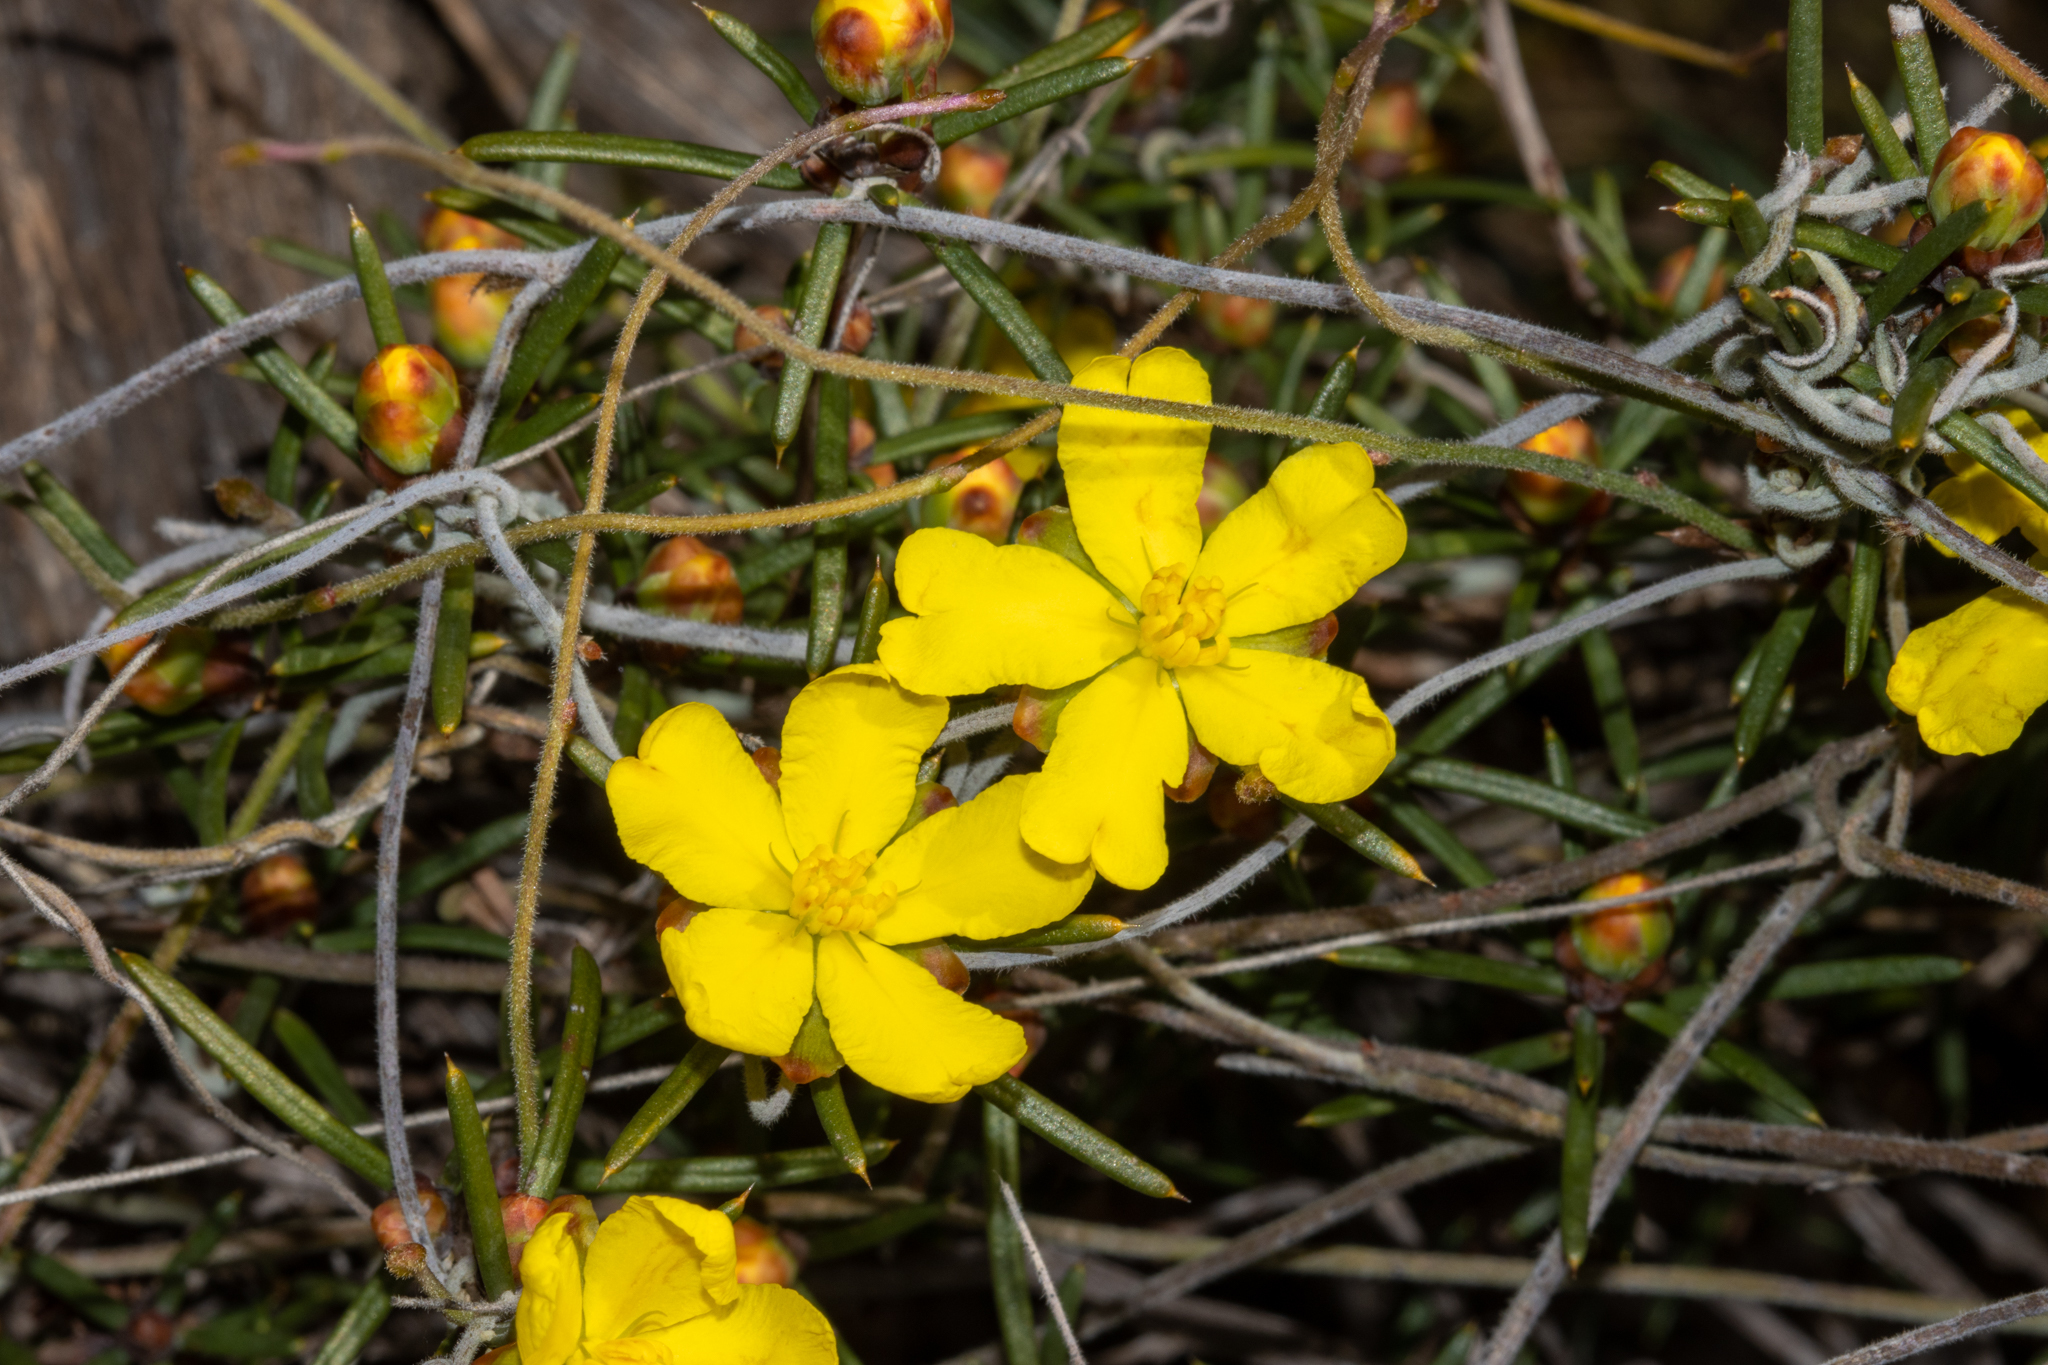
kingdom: Plantae
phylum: Tracheophyta
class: Magnoliopsida
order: Dilleniales
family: Dilleniaceae
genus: Hibbertia
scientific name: Hibbertia exasperata
